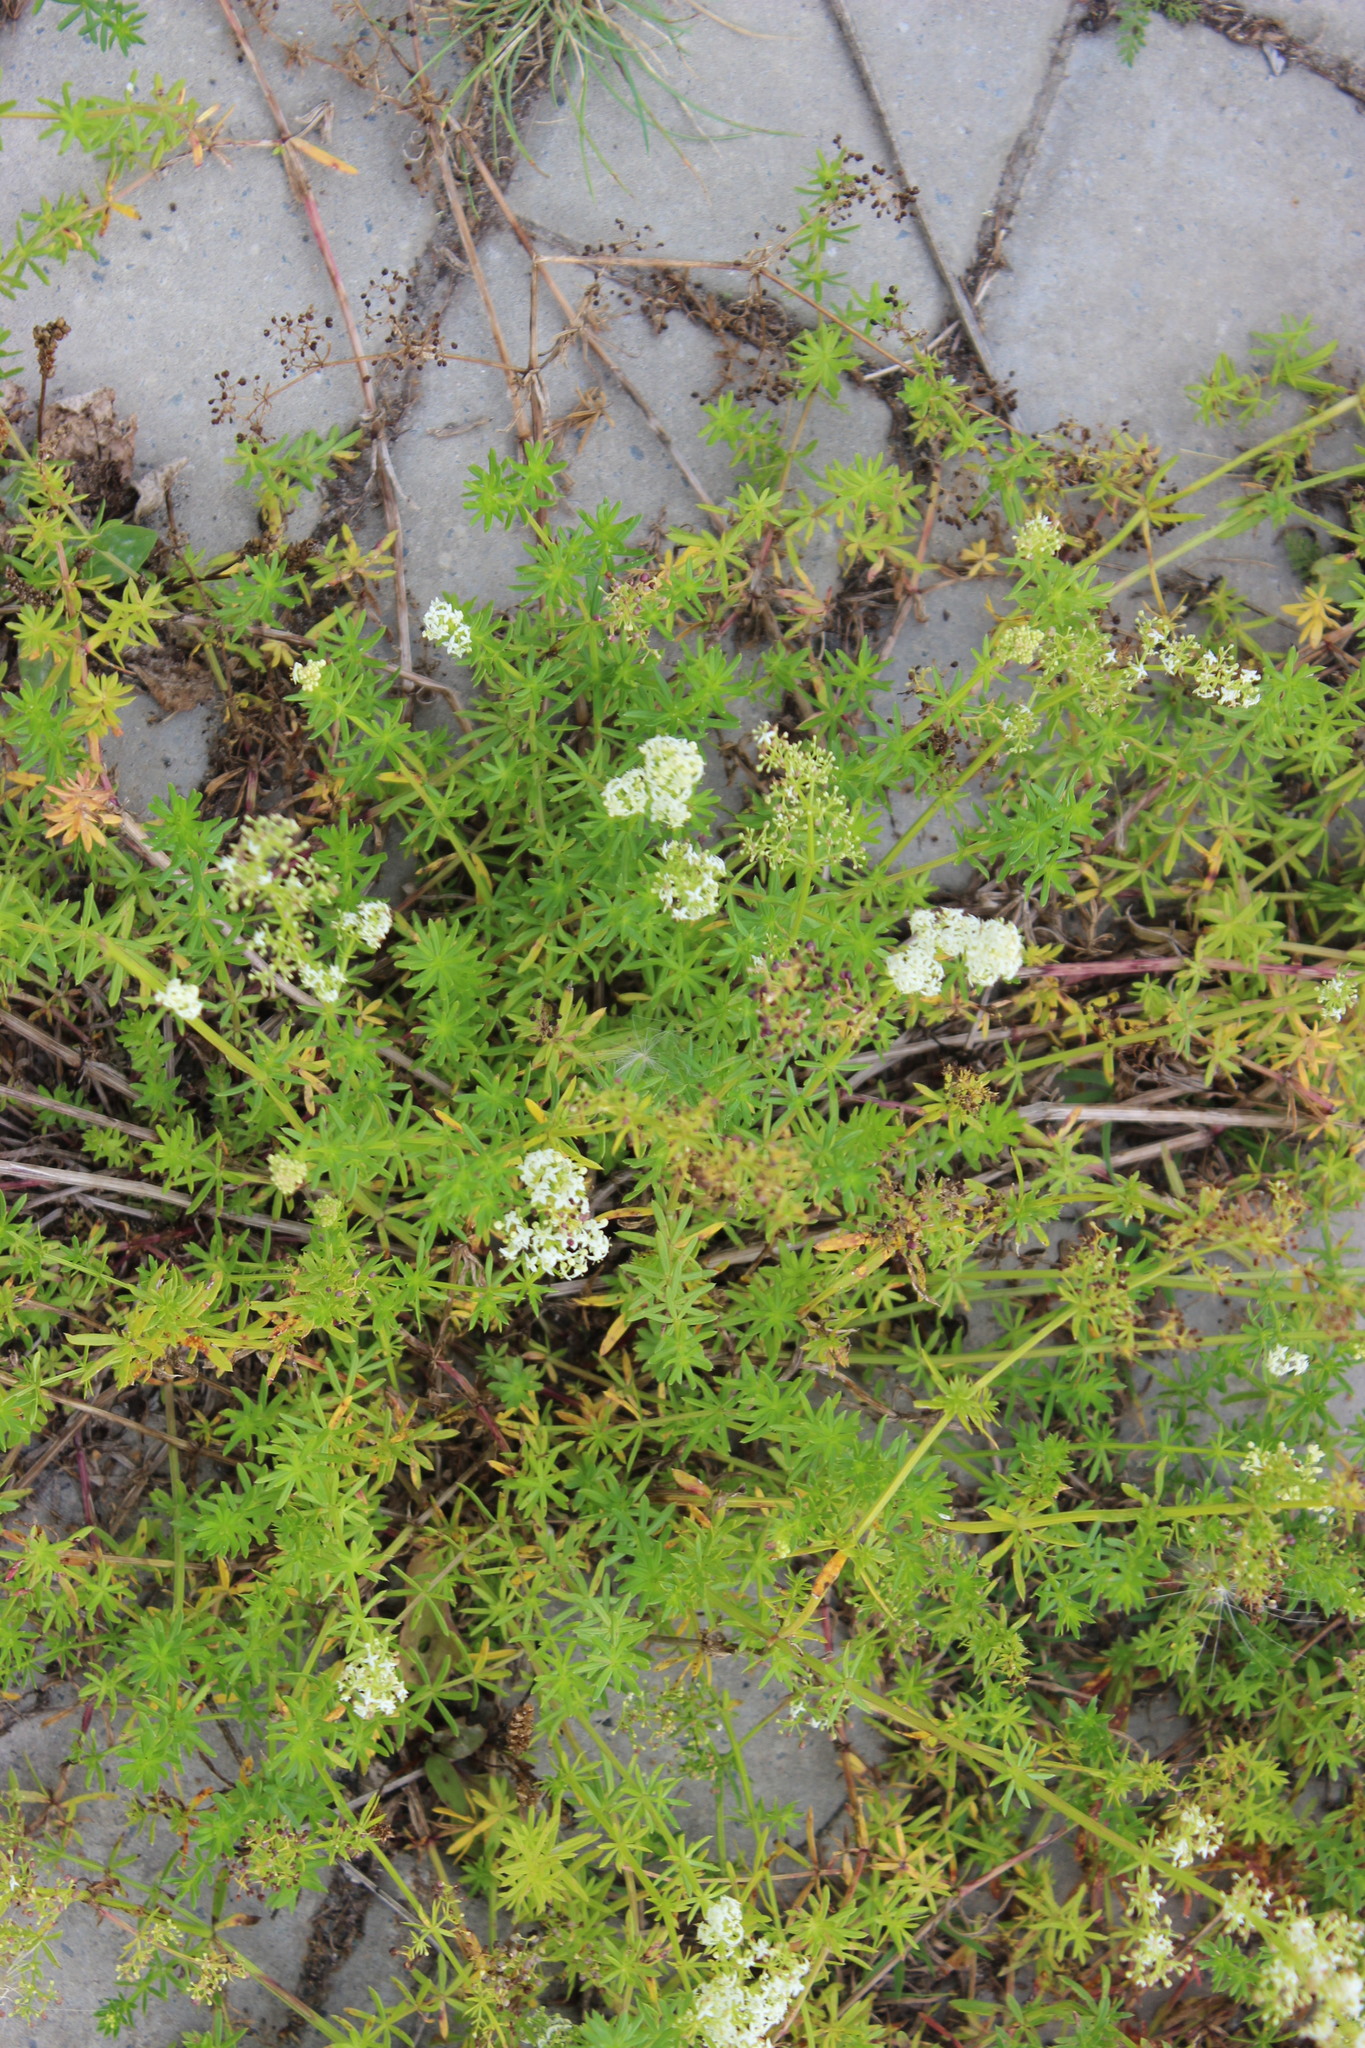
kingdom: Plantae
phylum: Tracheophyta
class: Magnoliopsida
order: Gentianales
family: Rubiaceae
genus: Galium
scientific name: Galium mollugo
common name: Hedge bedstraw
